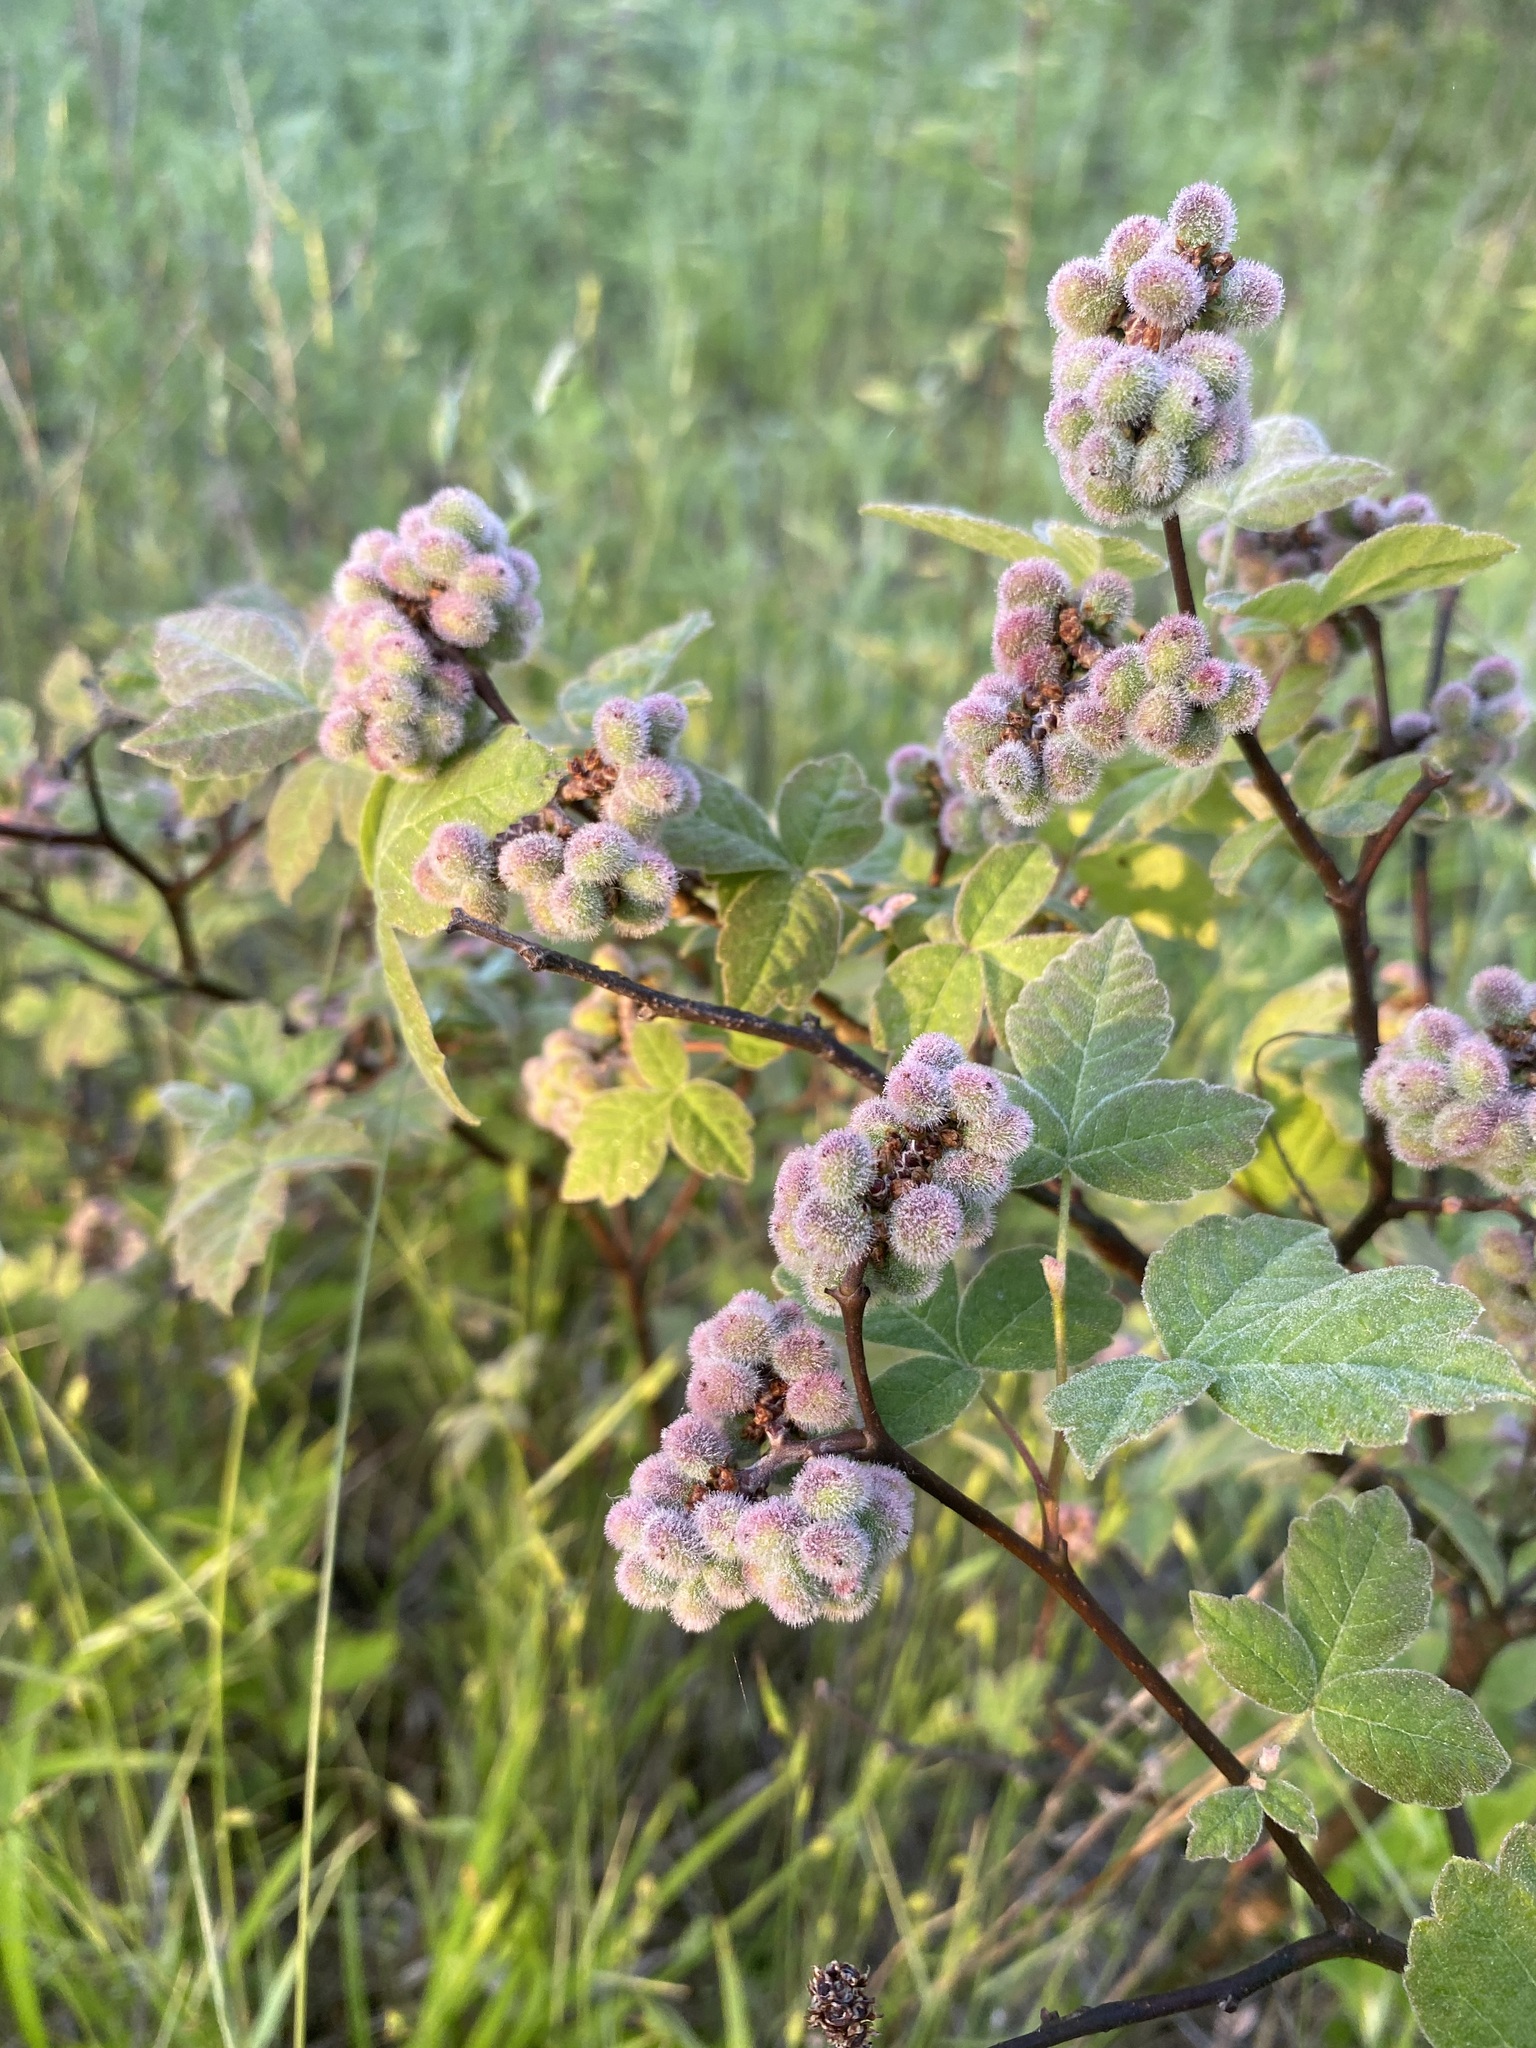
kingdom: Plantae
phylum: Tracheophyta
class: Magnoliopsida
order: Sapindales
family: Anacardiaceae
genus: Rhus
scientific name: Rhus aromatica
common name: Aromatic sumac
